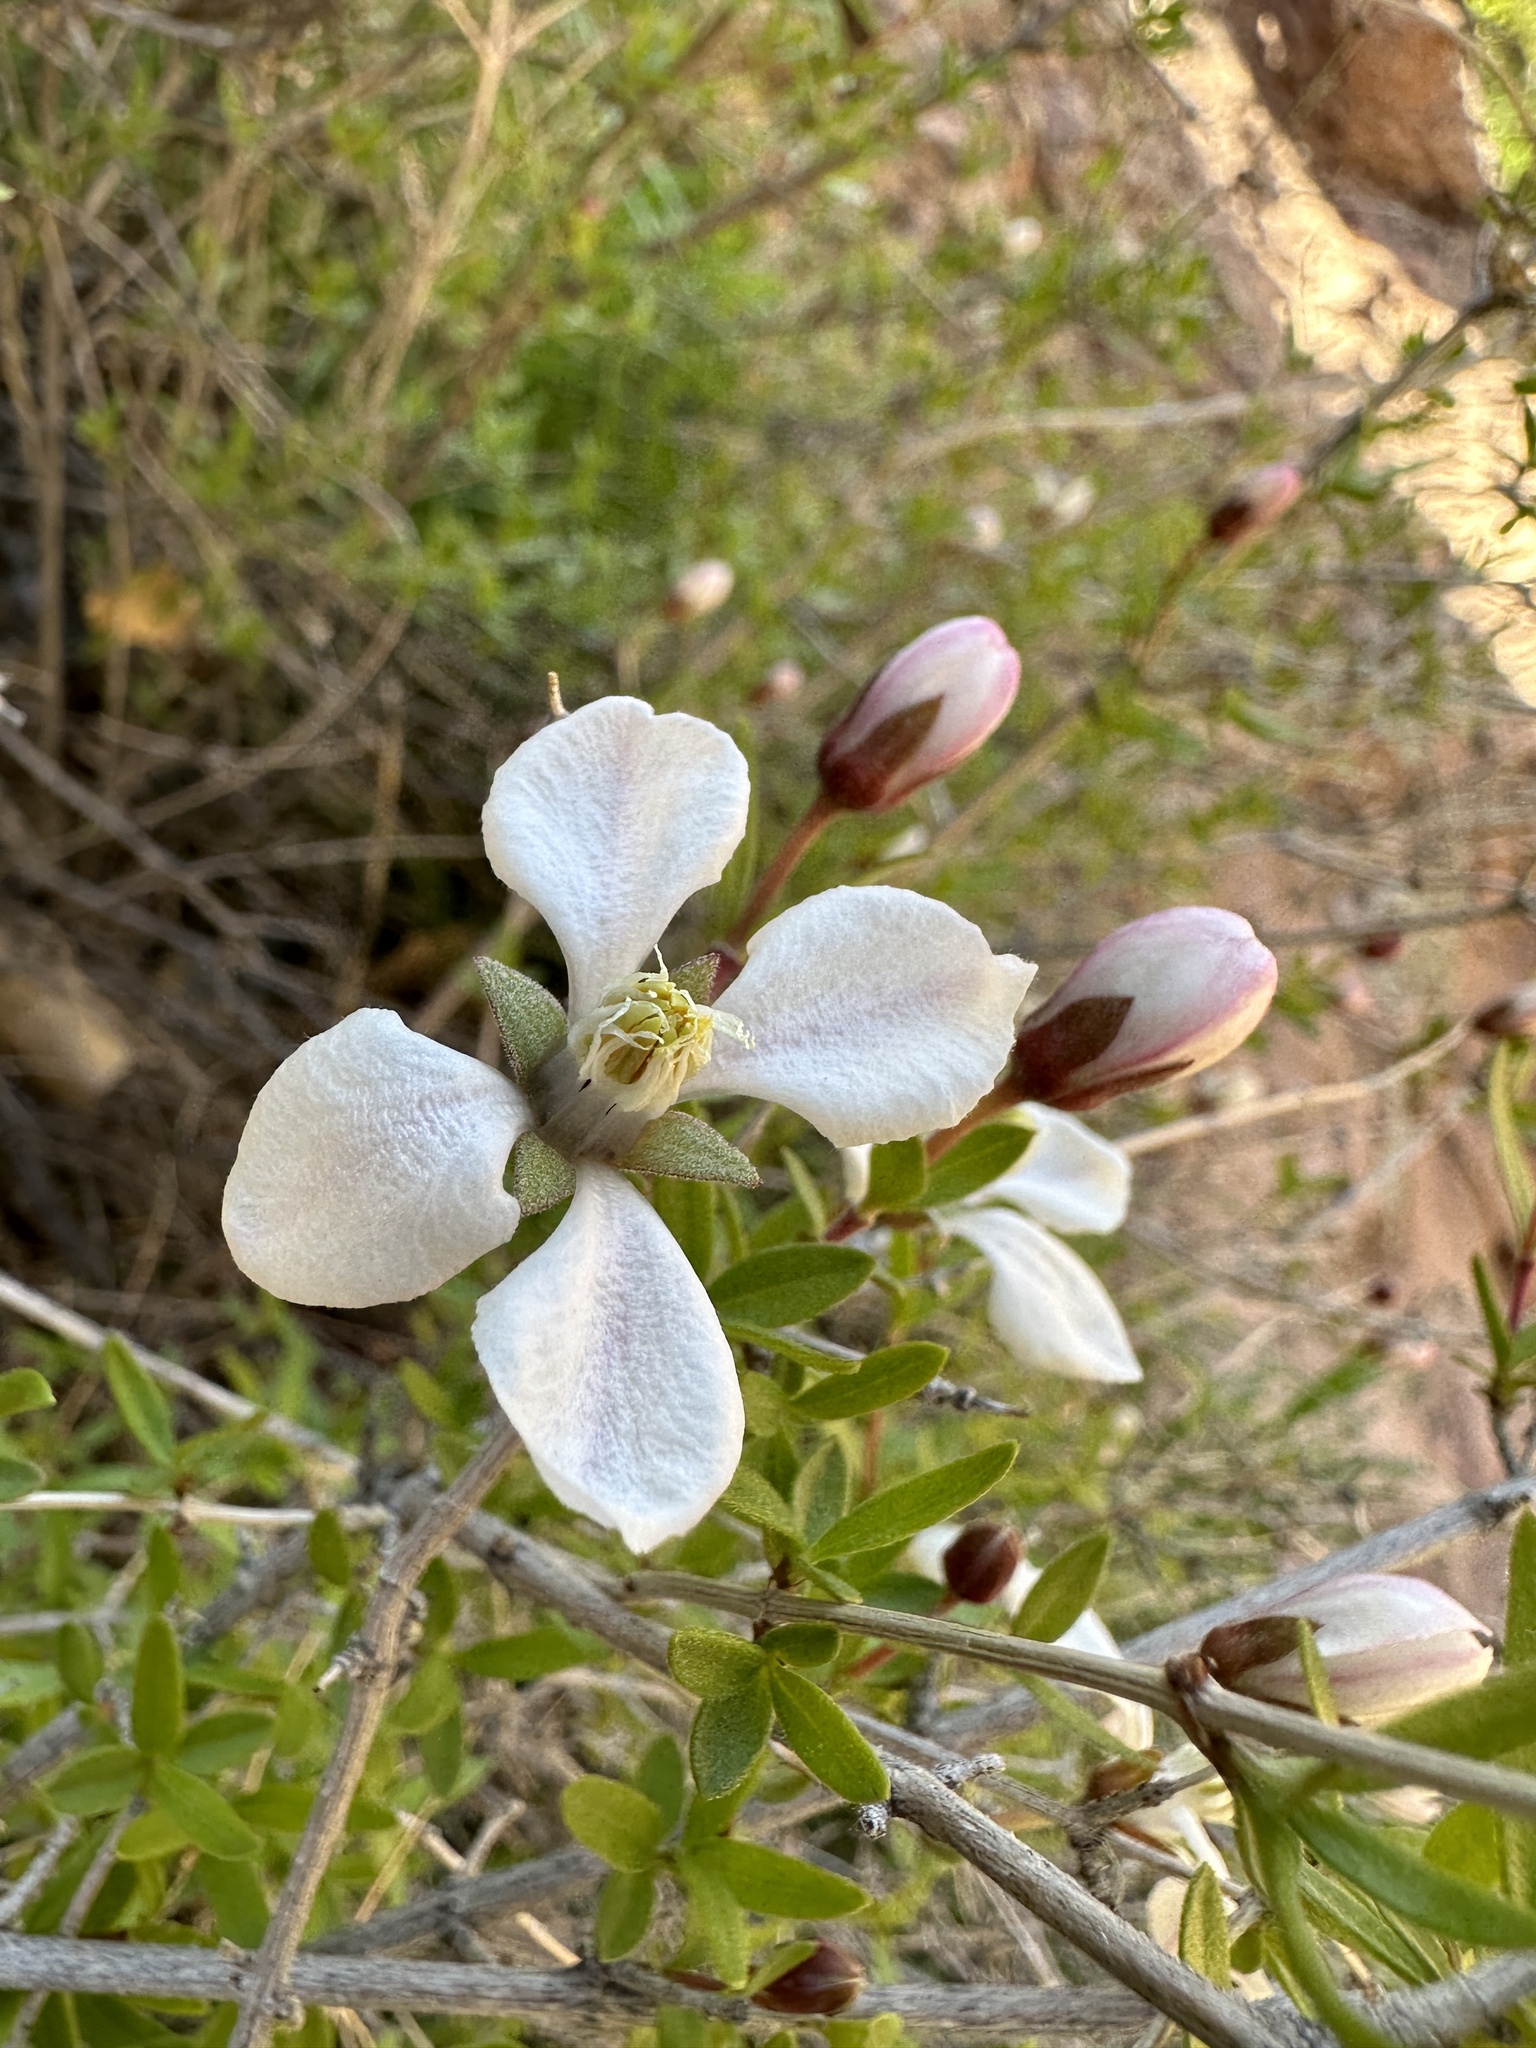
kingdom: Plantae
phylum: Tracheophyta
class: Magnoliopsida
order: Cornales
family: Hydrangeaceae
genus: Fendlera
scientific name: Fendlera rupicola
